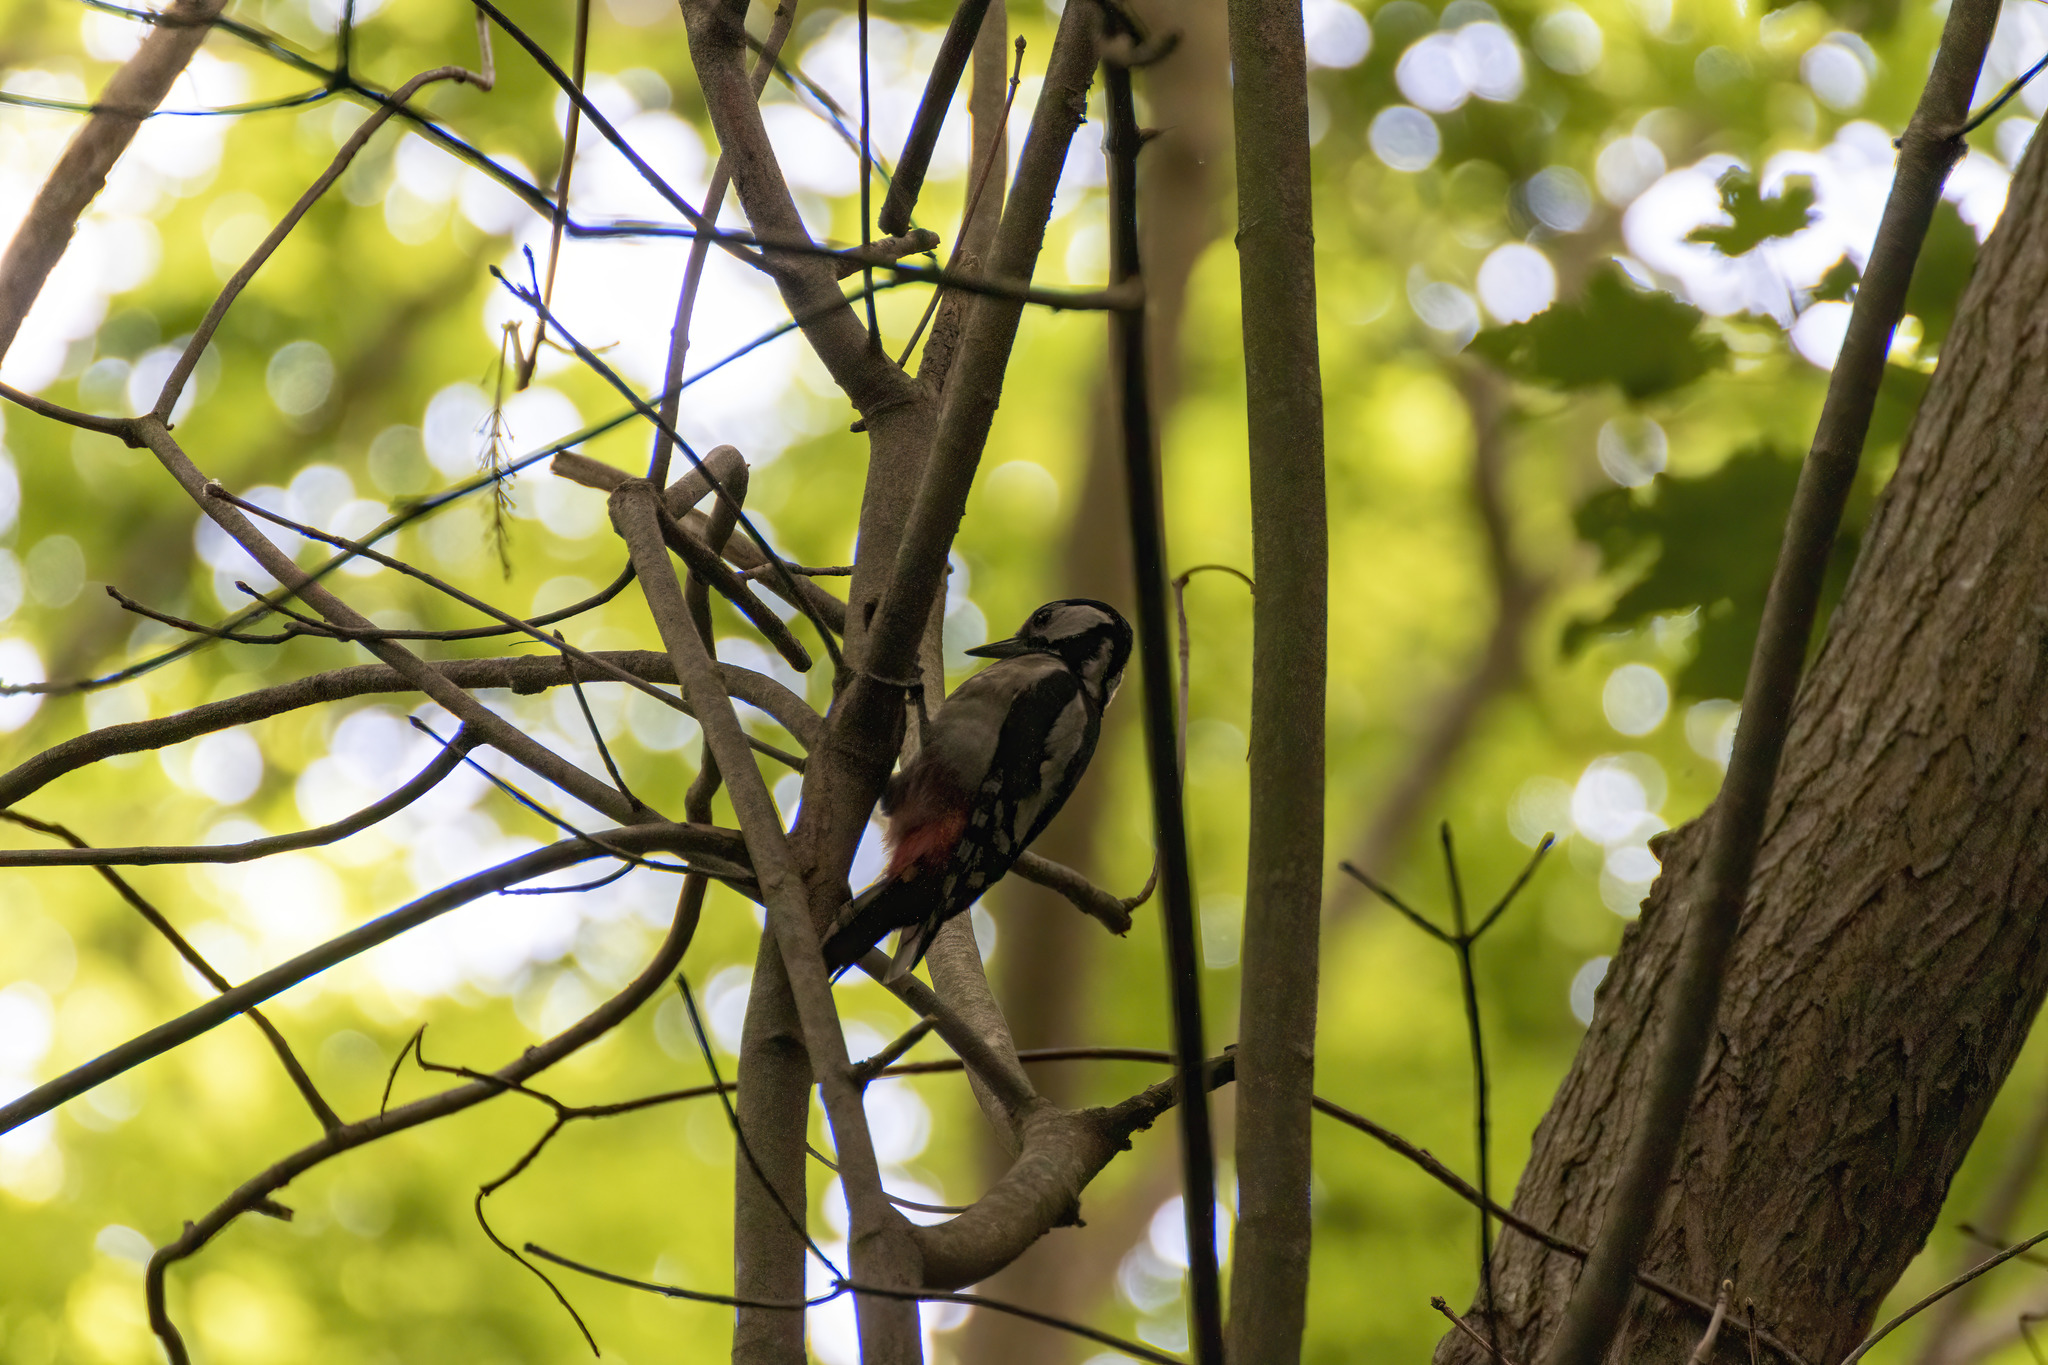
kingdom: Animalia
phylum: Chordata
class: Aves
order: Piciformes
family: Picidae
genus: Dendrocopos
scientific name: Dendrocopos major
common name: Great spotted woodpecker
